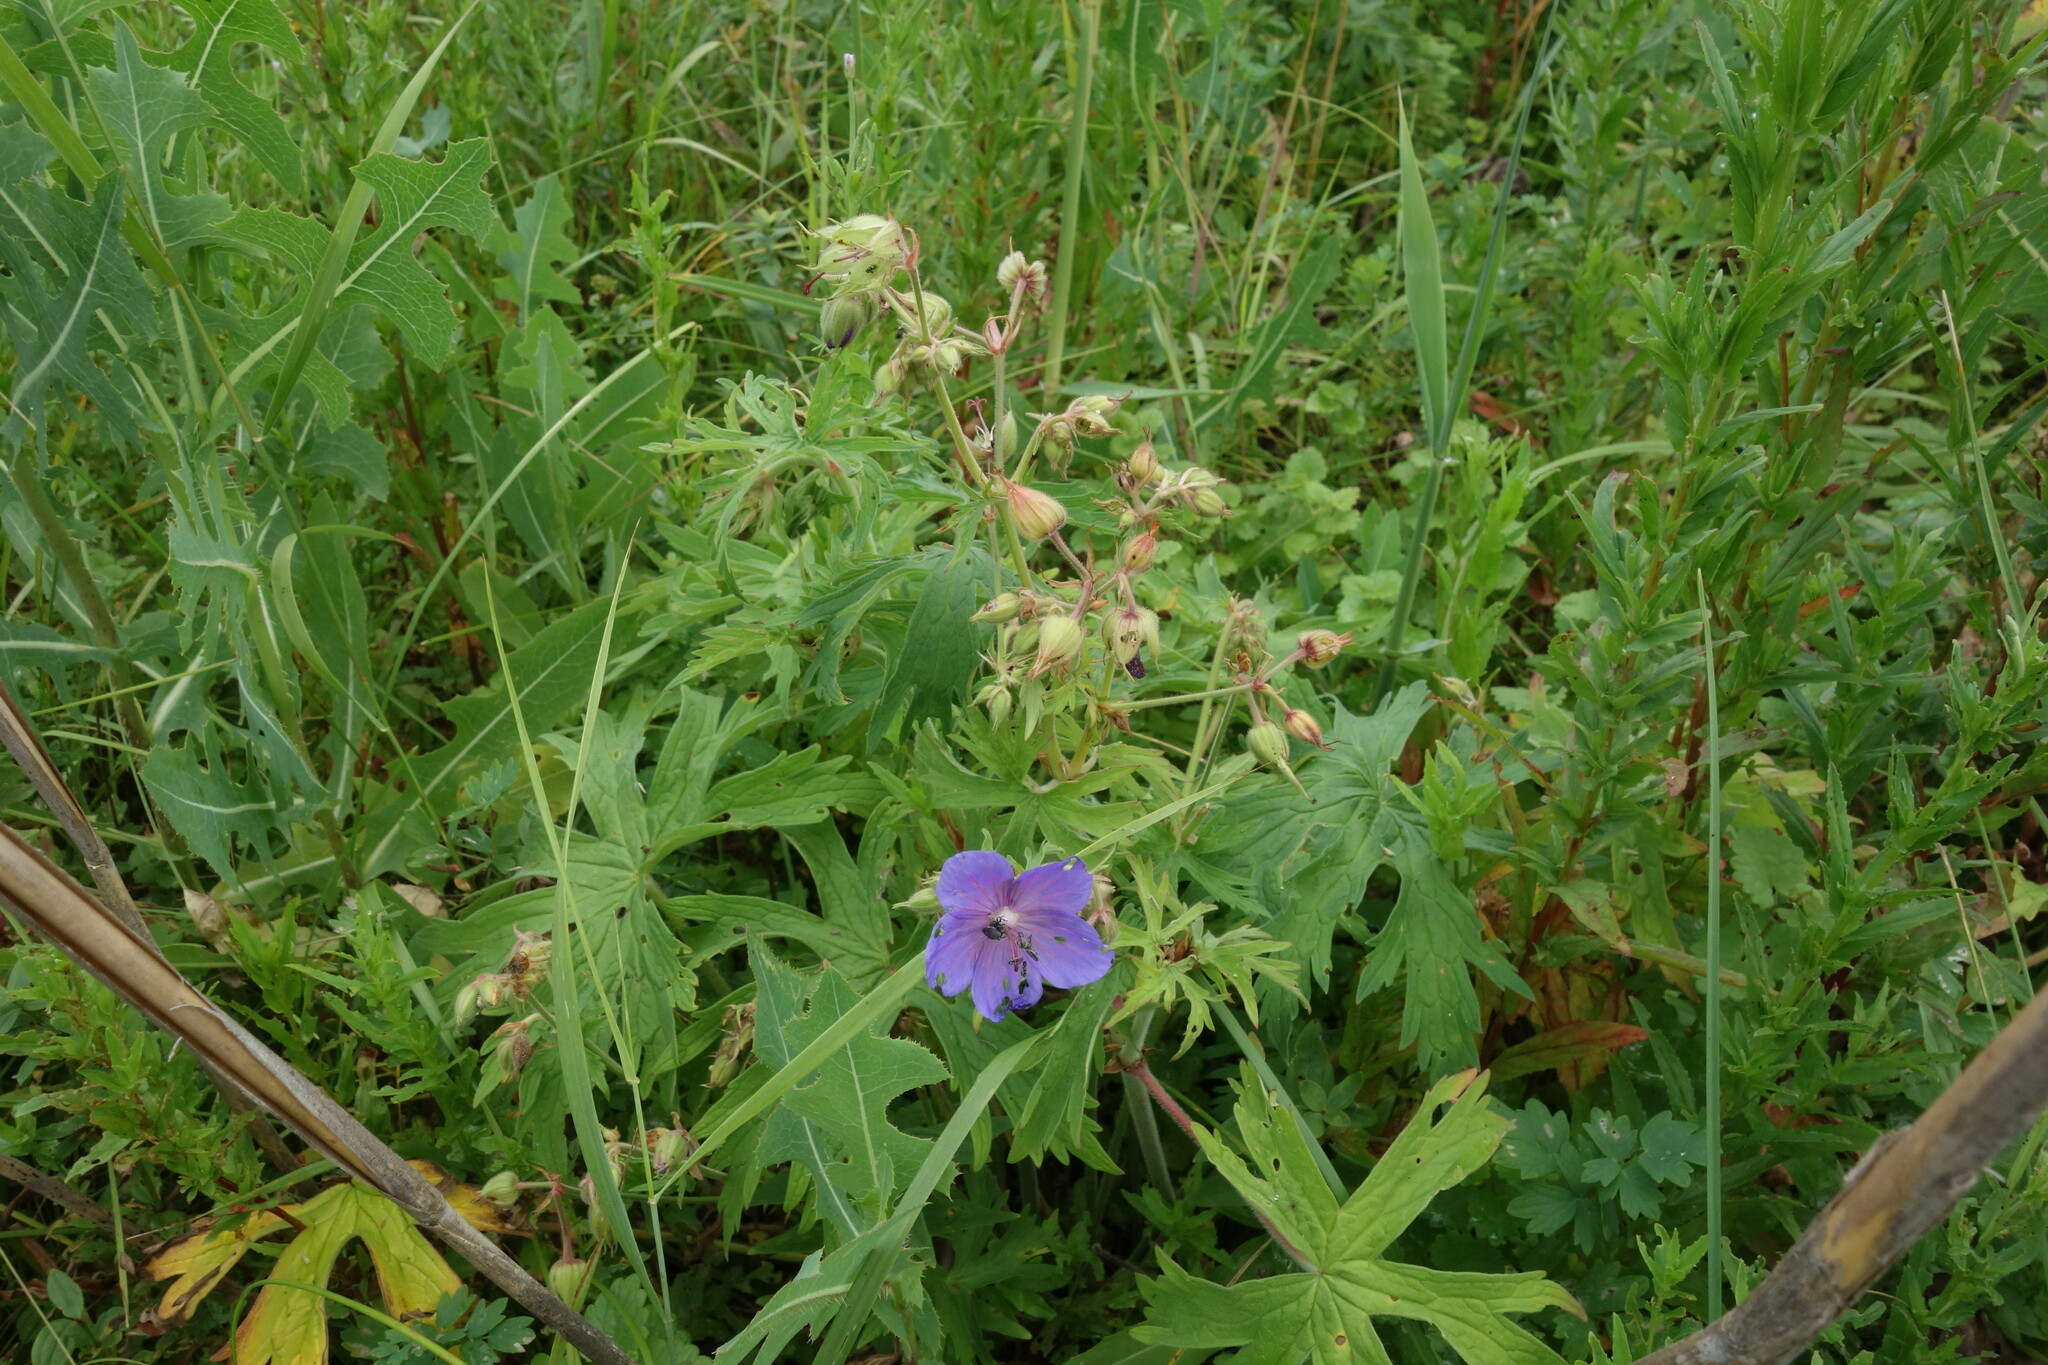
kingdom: Plantae
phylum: Tracheophyta
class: Magnoliopsida
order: Geraniales
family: Geraniaceae
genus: Geranium
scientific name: Geranium pratense
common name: Meadow crane's-bill
